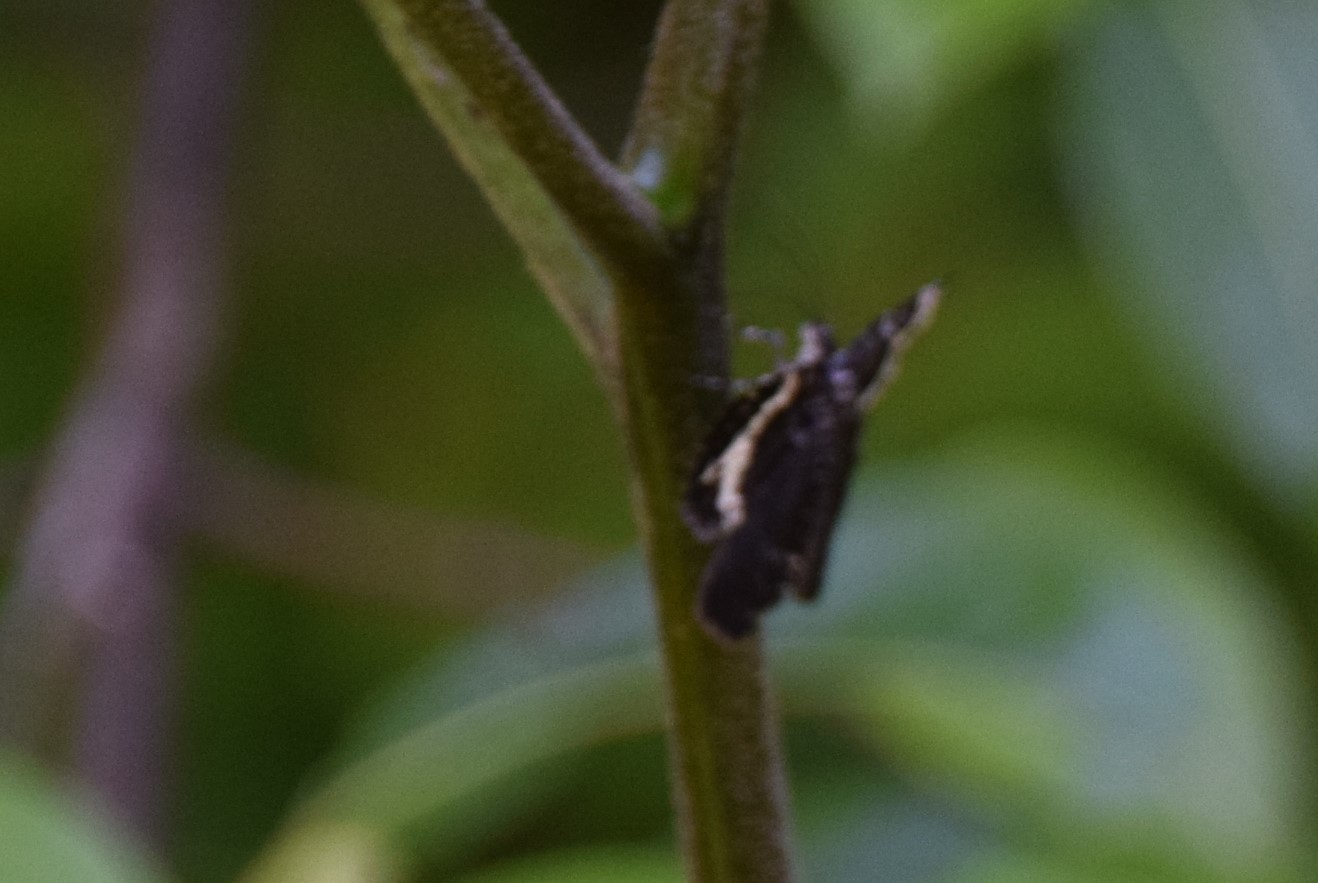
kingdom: Animalia
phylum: Arthropoda
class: Insecta
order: Lepidoptera
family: Geometridae
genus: Rheumaptera
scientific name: Rheumaptera
